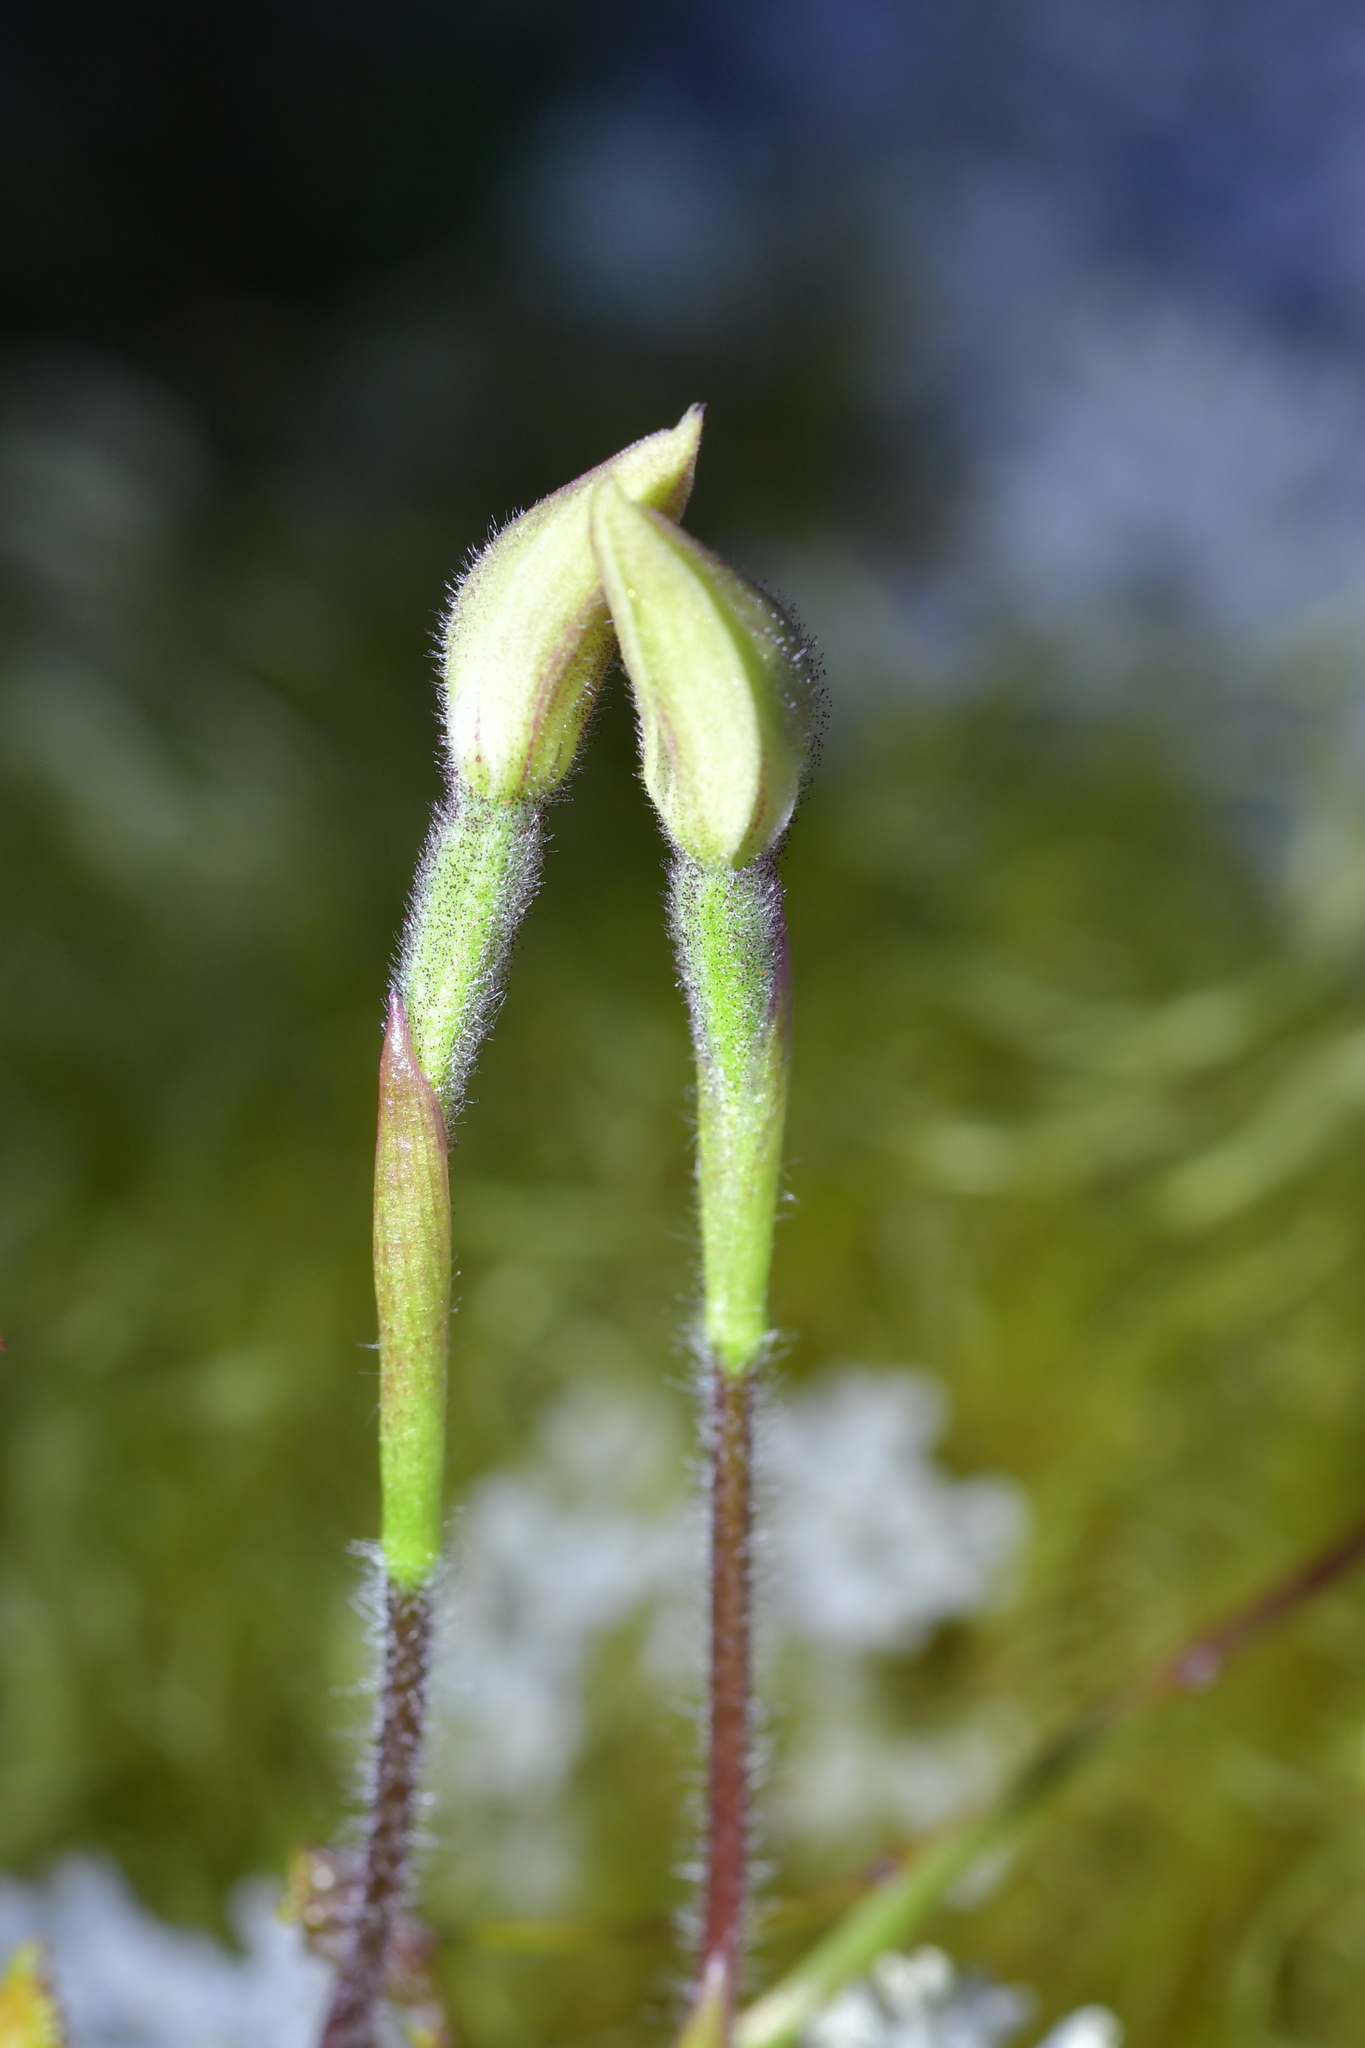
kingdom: Plantae
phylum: Tracheophyta
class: Liliopsida
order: Asparagales
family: Orchidaceae
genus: Caladenia
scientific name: Caladenia lyallii
